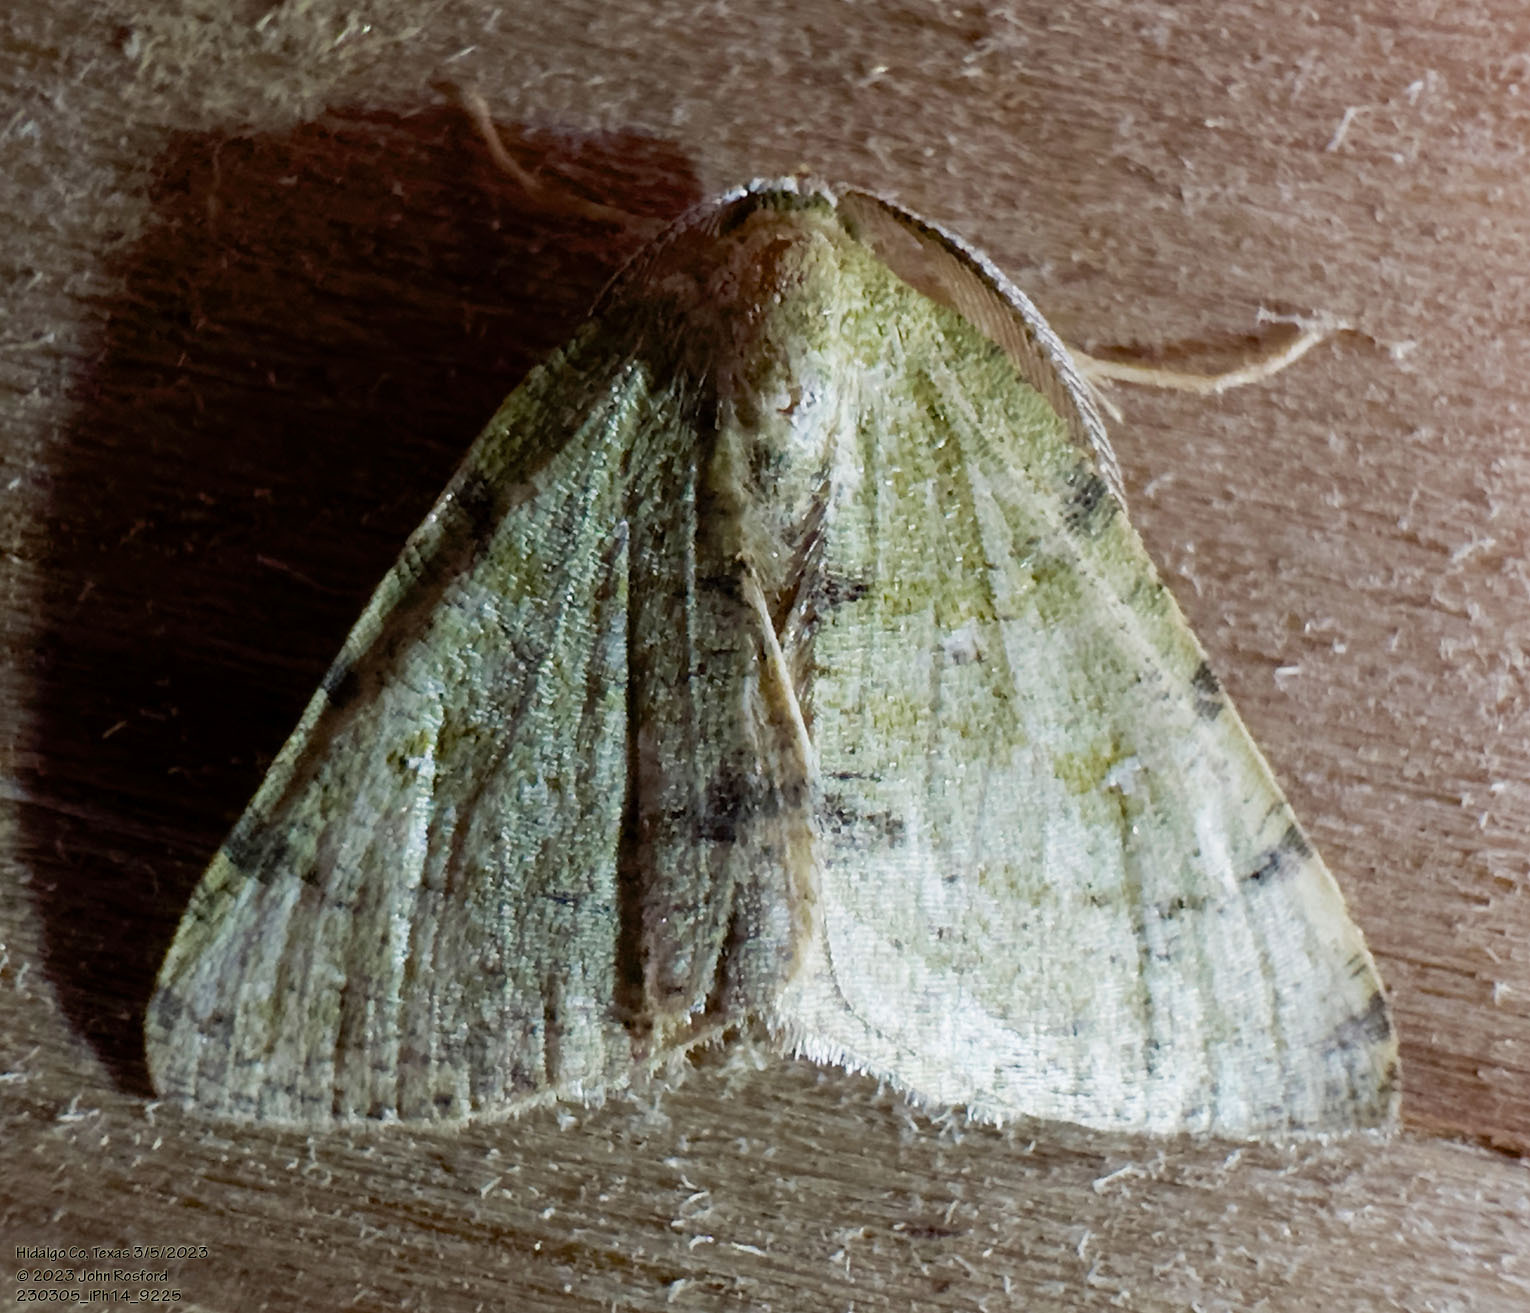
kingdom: Animalia
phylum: Arthropoda
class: Insecta
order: Lepidoptera
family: Geometridae
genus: Chloraspilates
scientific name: Chloraspilates bicoloraria
